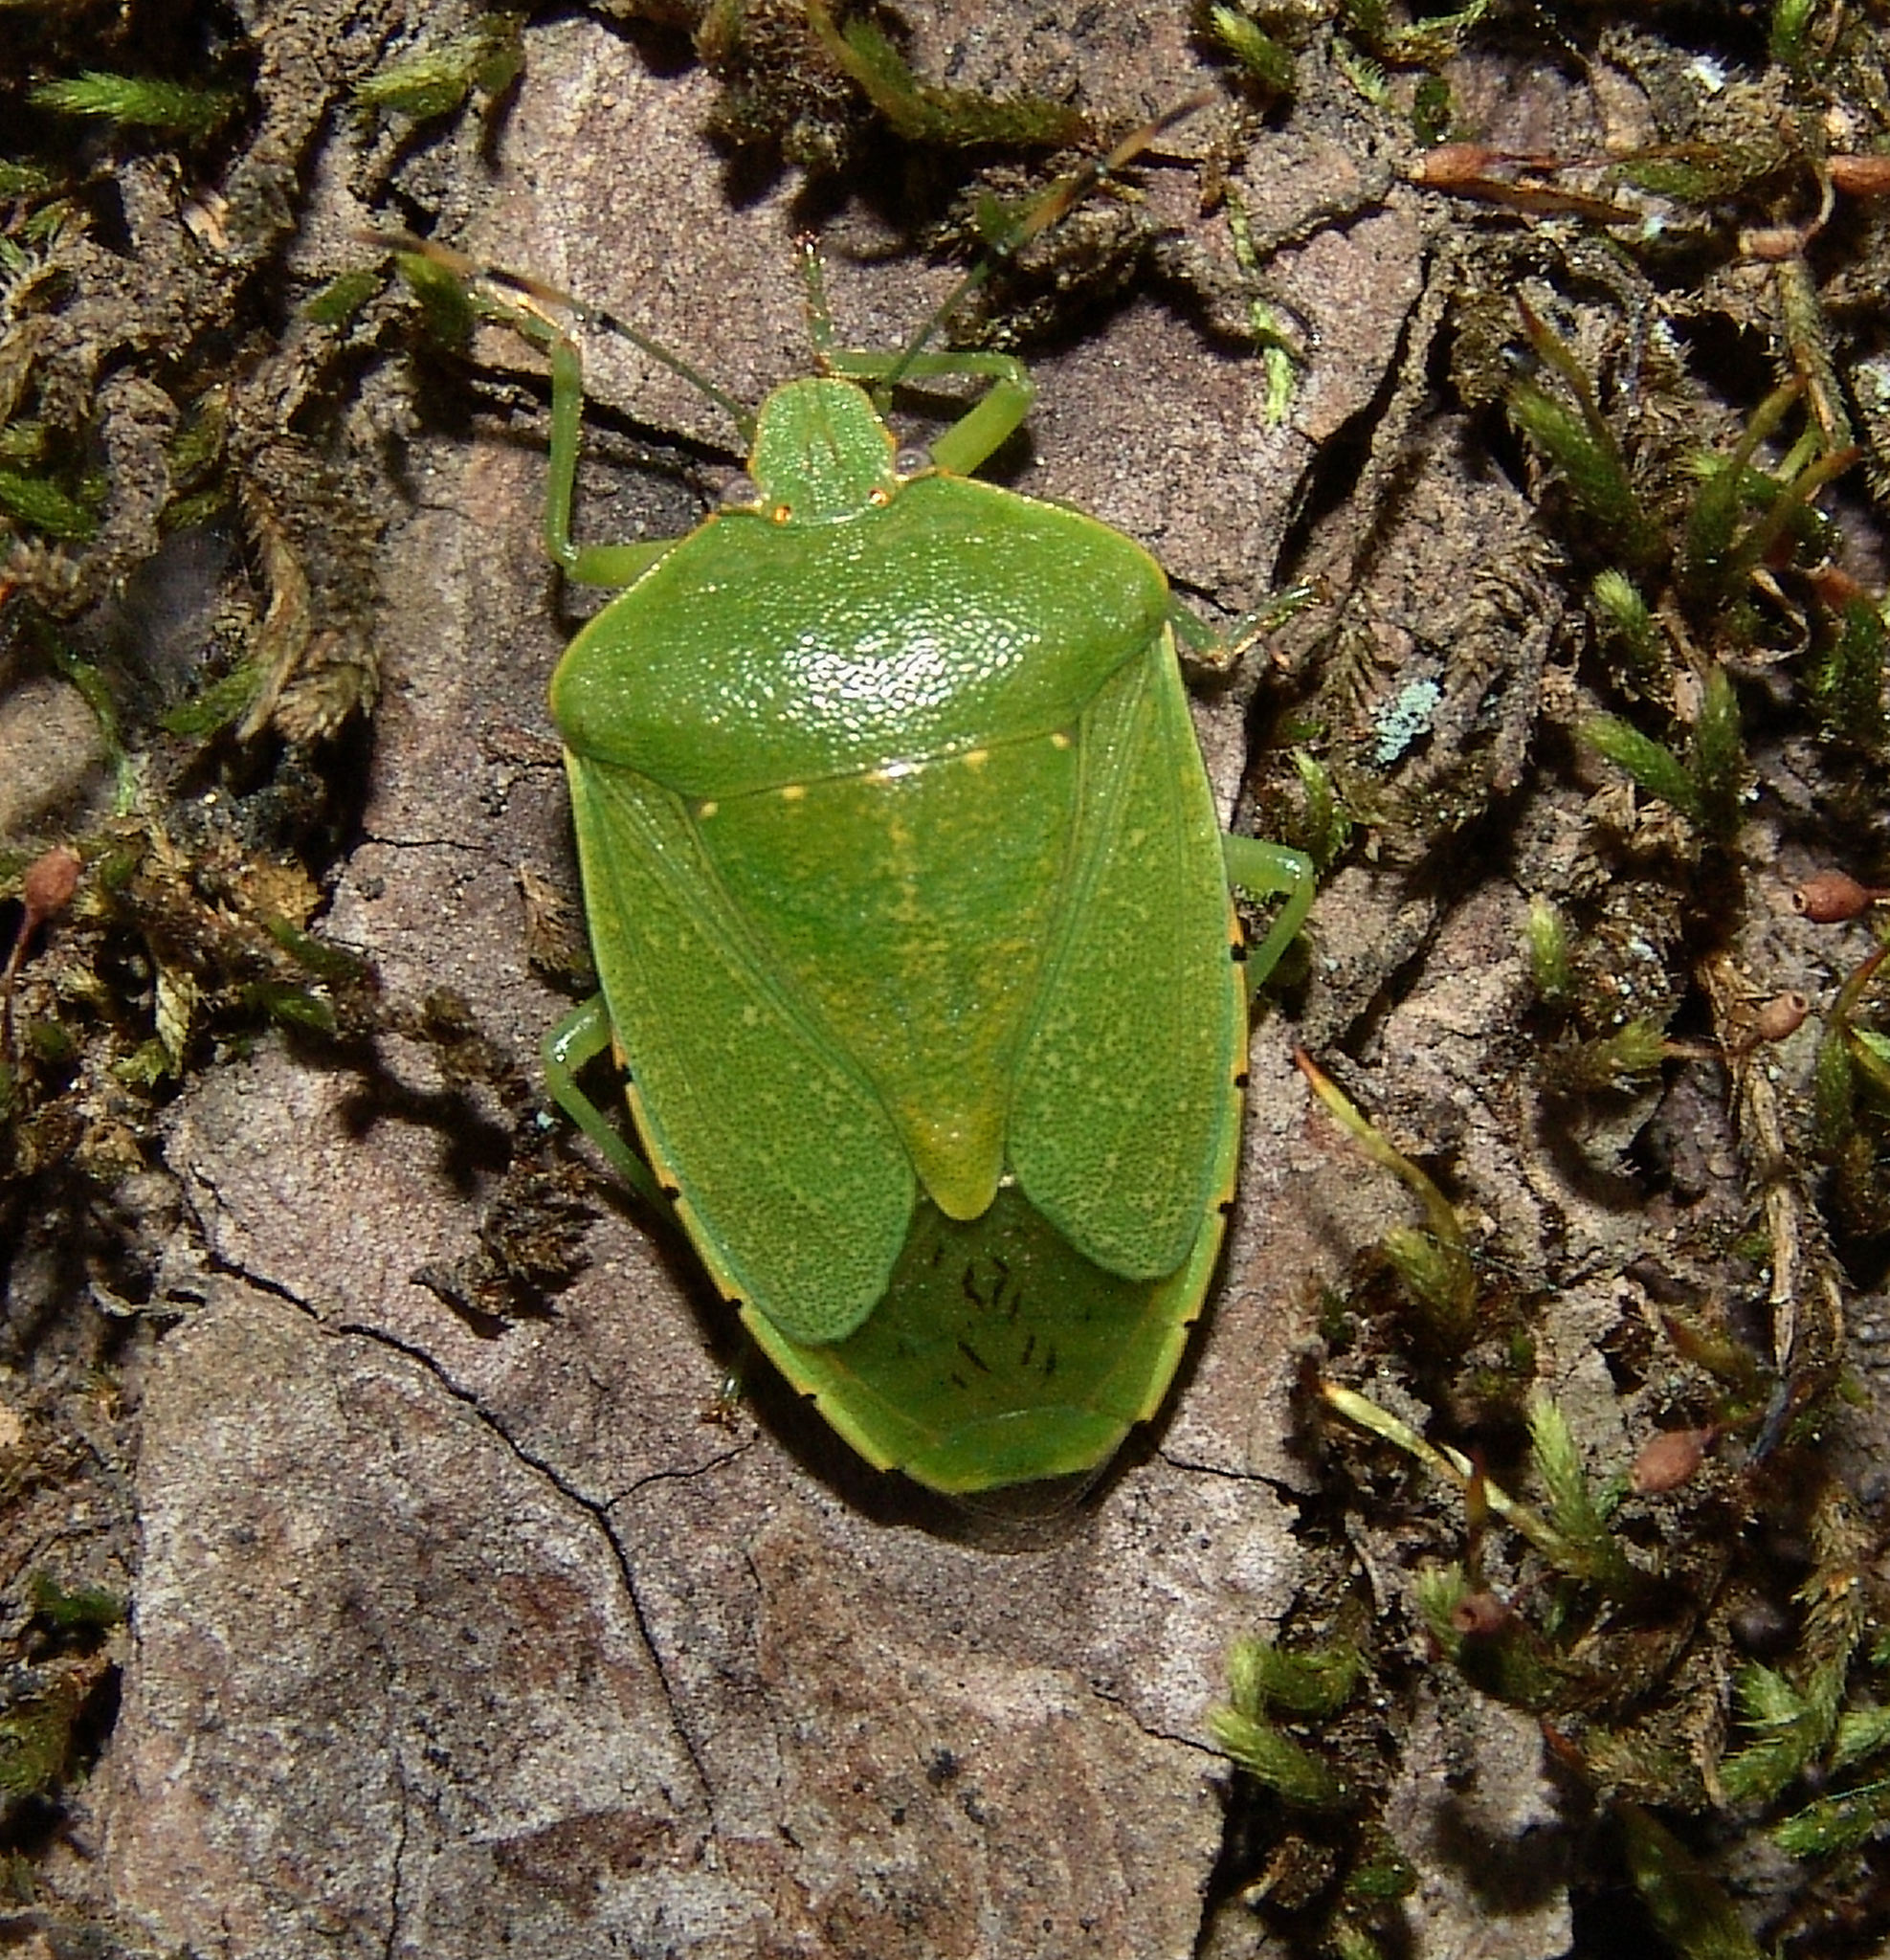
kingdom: Animalia
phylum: Arthropoda
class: Insecta
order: Hemiptera
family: Pentatomidae
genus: Chinavia
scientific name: Chinavia hilaris
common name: Green stink bug
